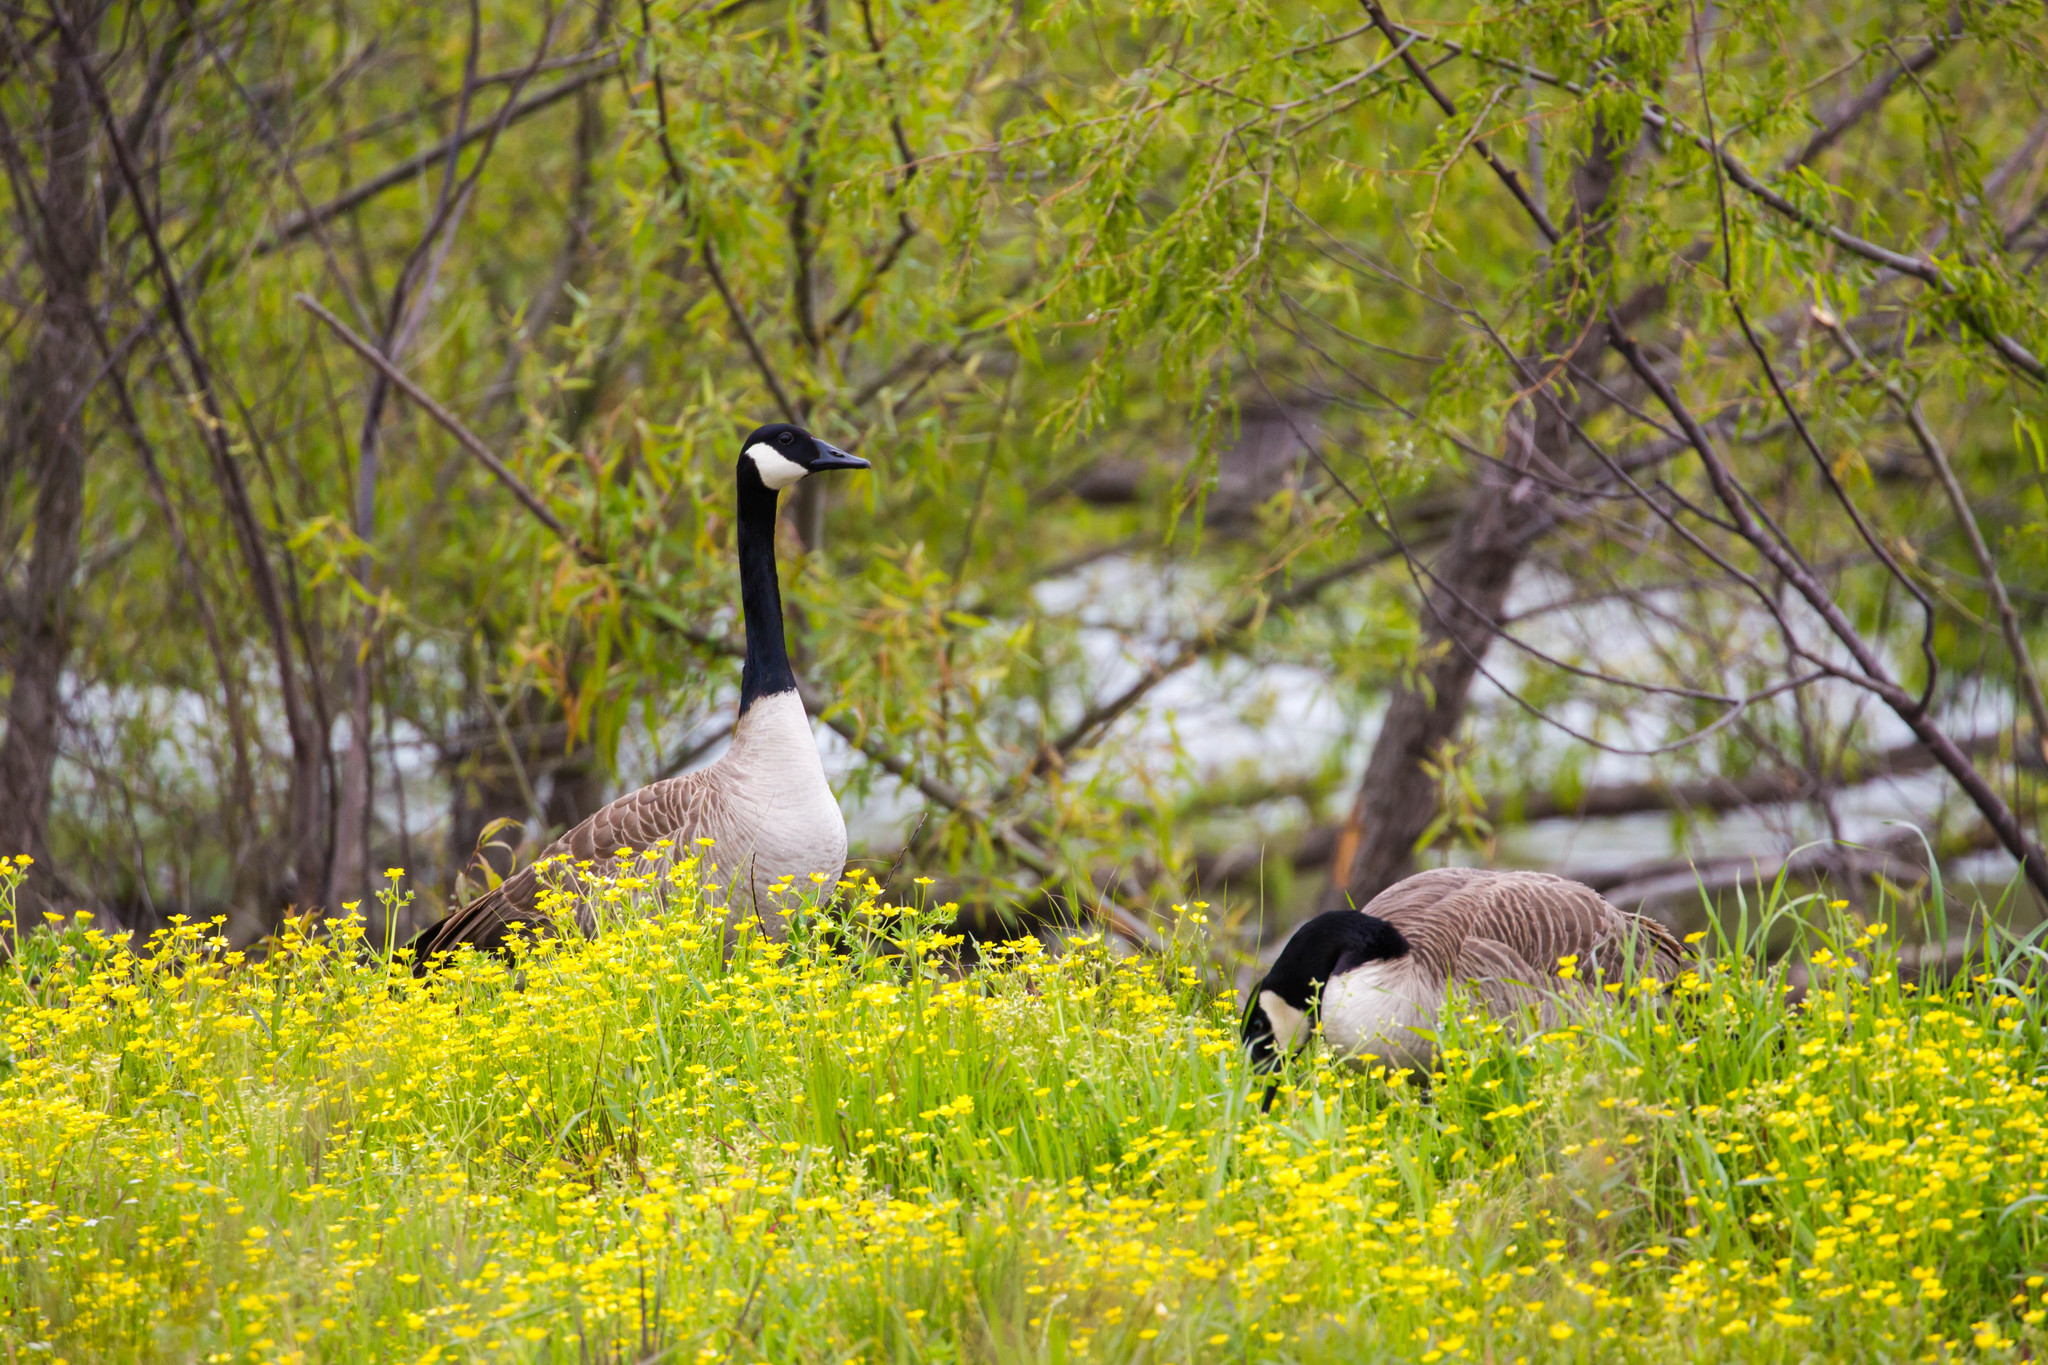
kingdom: Animalia
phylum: Chordata
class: Aves
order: Anseriformes
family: Anatidae
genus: Branta
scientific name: Branta canadensis
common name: Canada goose
